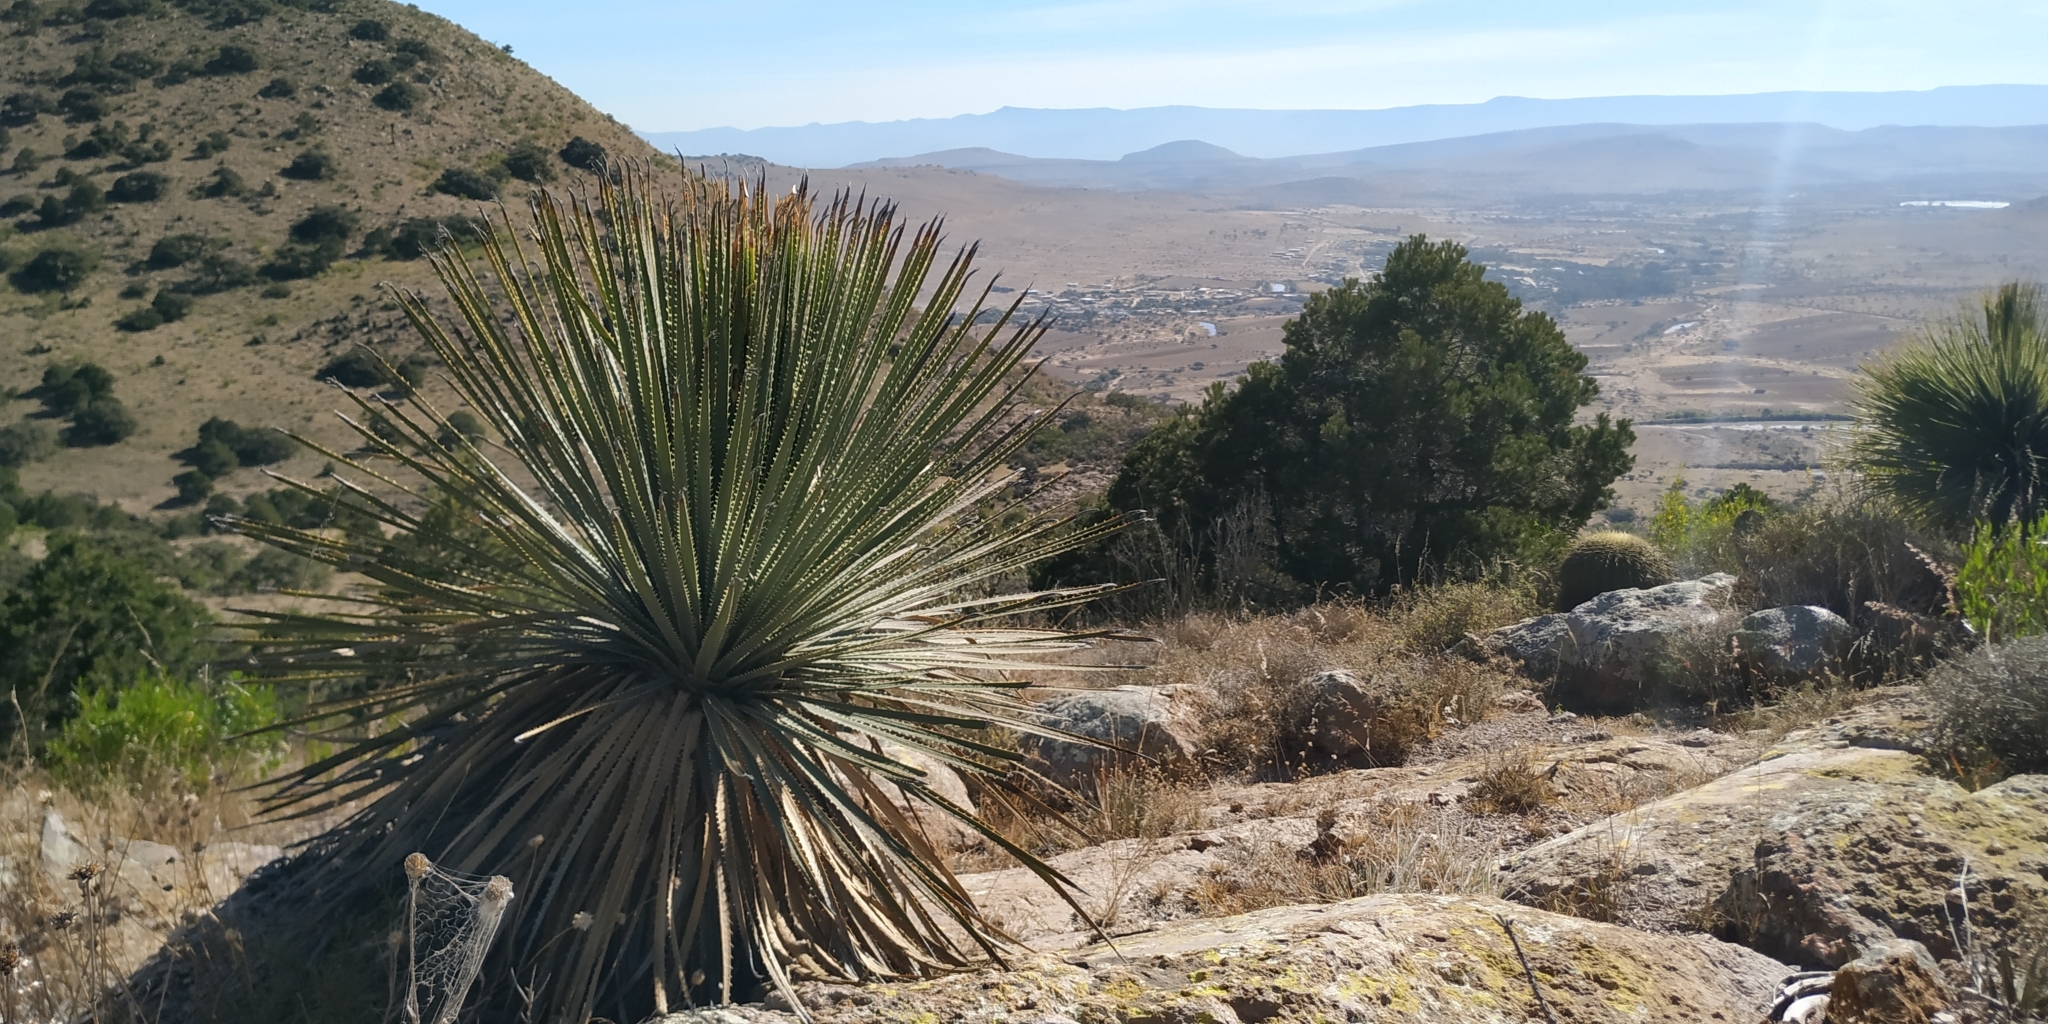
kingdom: Plantae
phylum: Tracheophyta
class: Liliopsida
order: Asparagales
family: Asparagaceae
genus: Dasylirion
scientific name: Dasylirion parryanum
